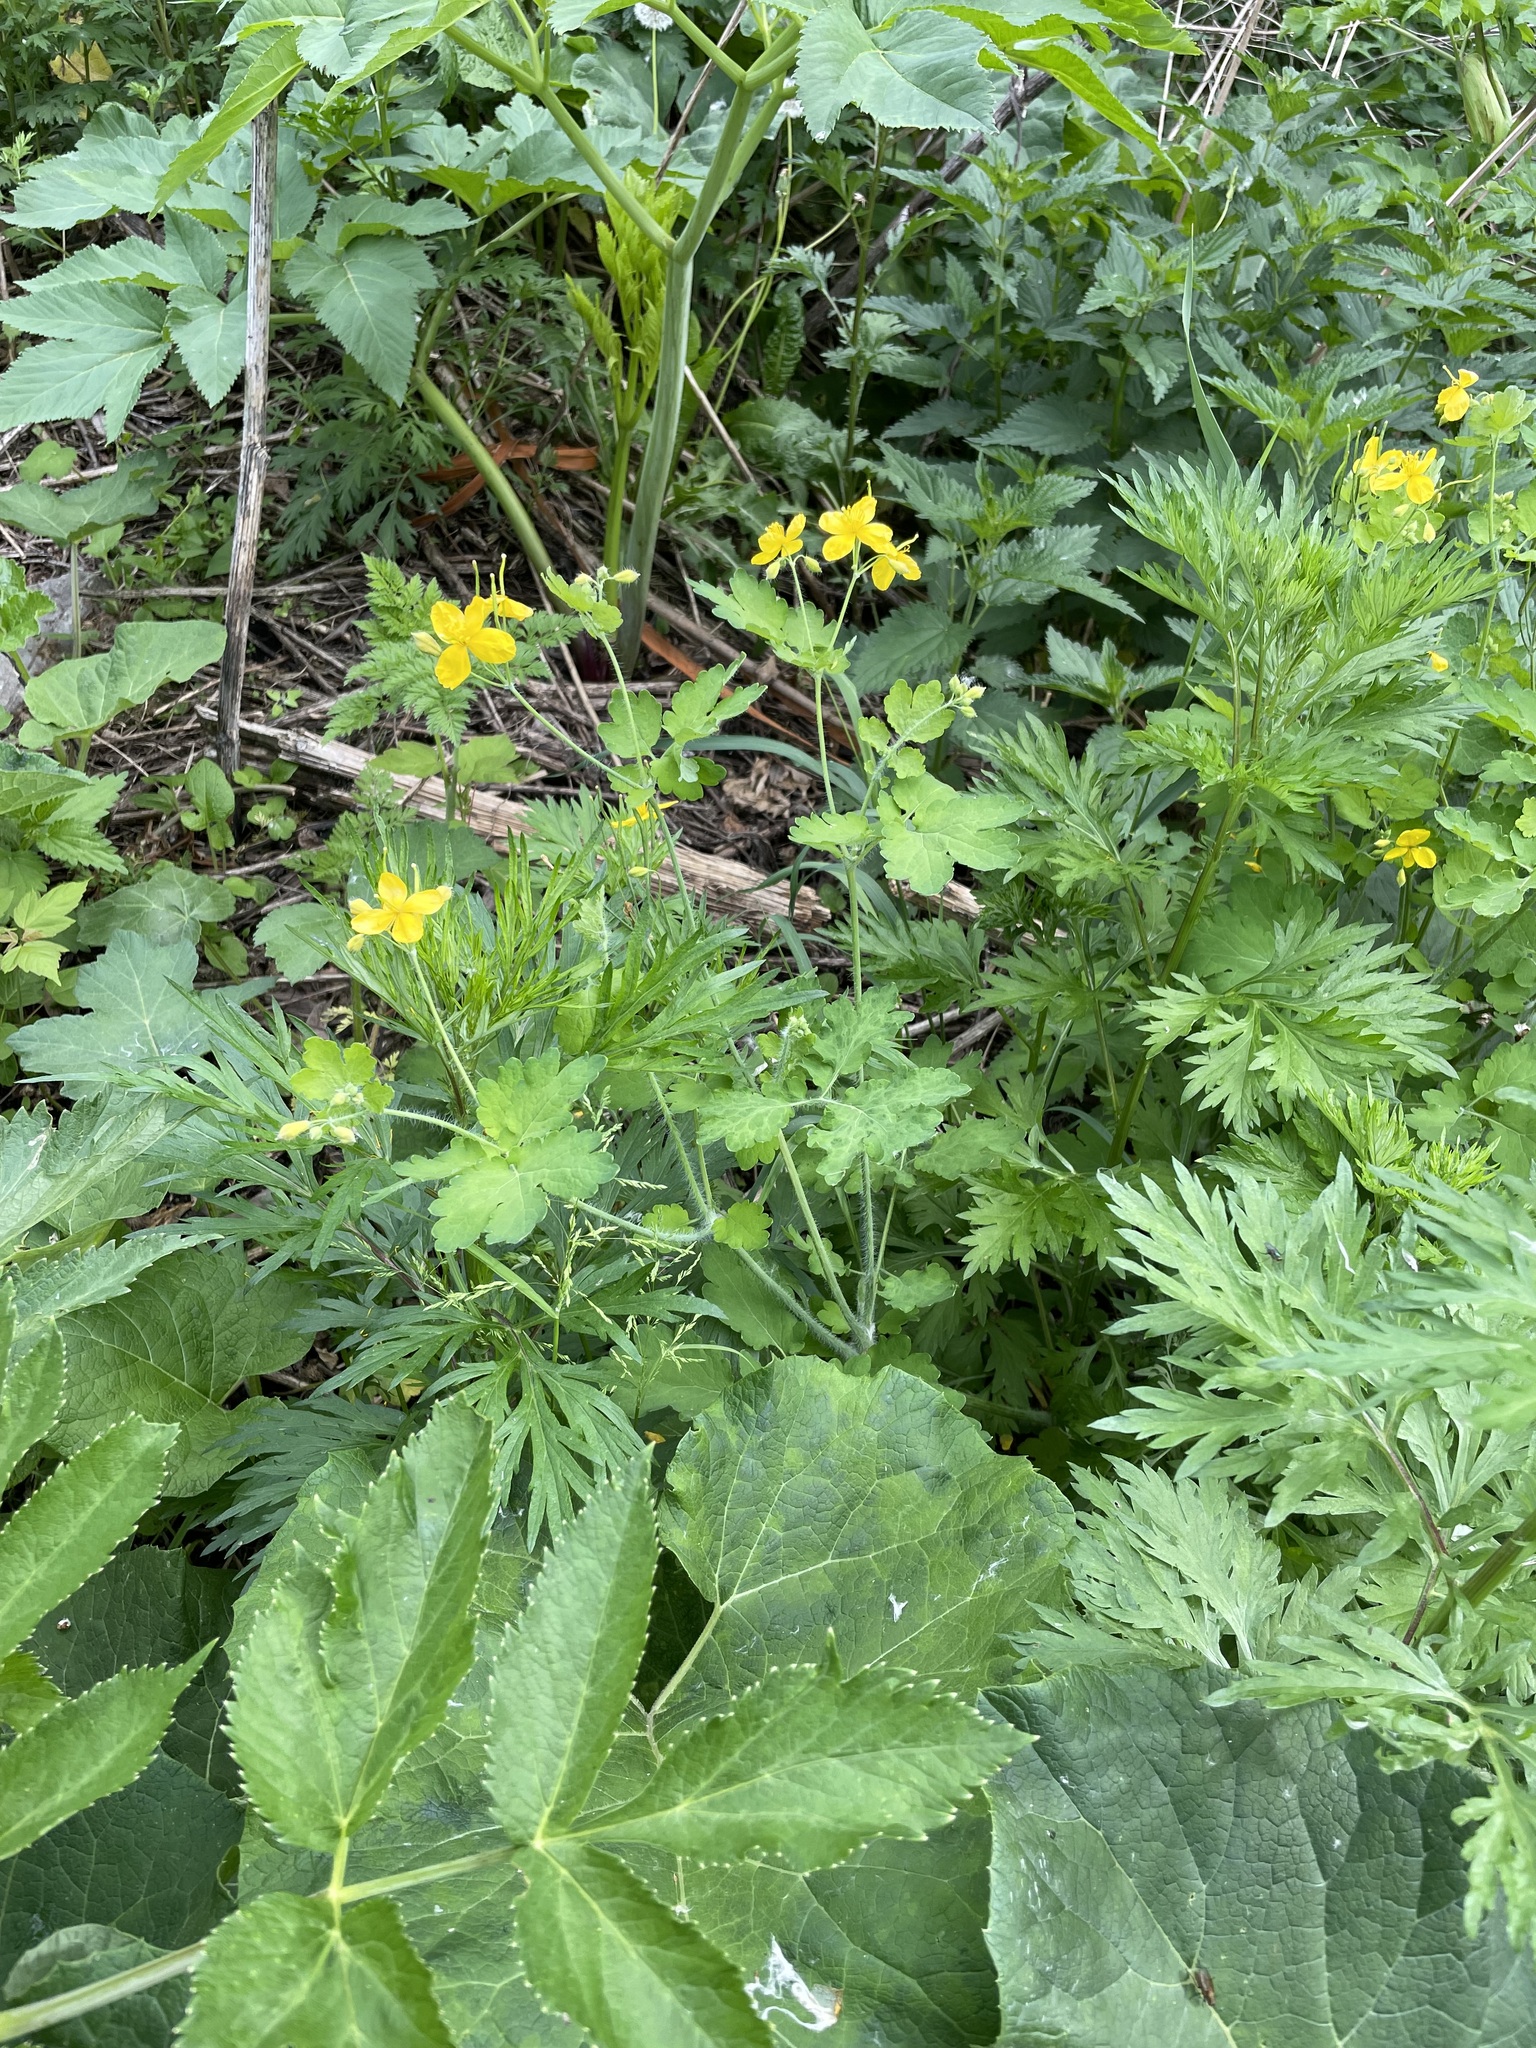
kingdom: Plantae
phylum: Tracheophyta
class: Magnoliopsida
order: Ranunculales
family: Papaveraceae
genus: Chelidonium
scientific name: Chelidonium majus
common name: Greater celandine
